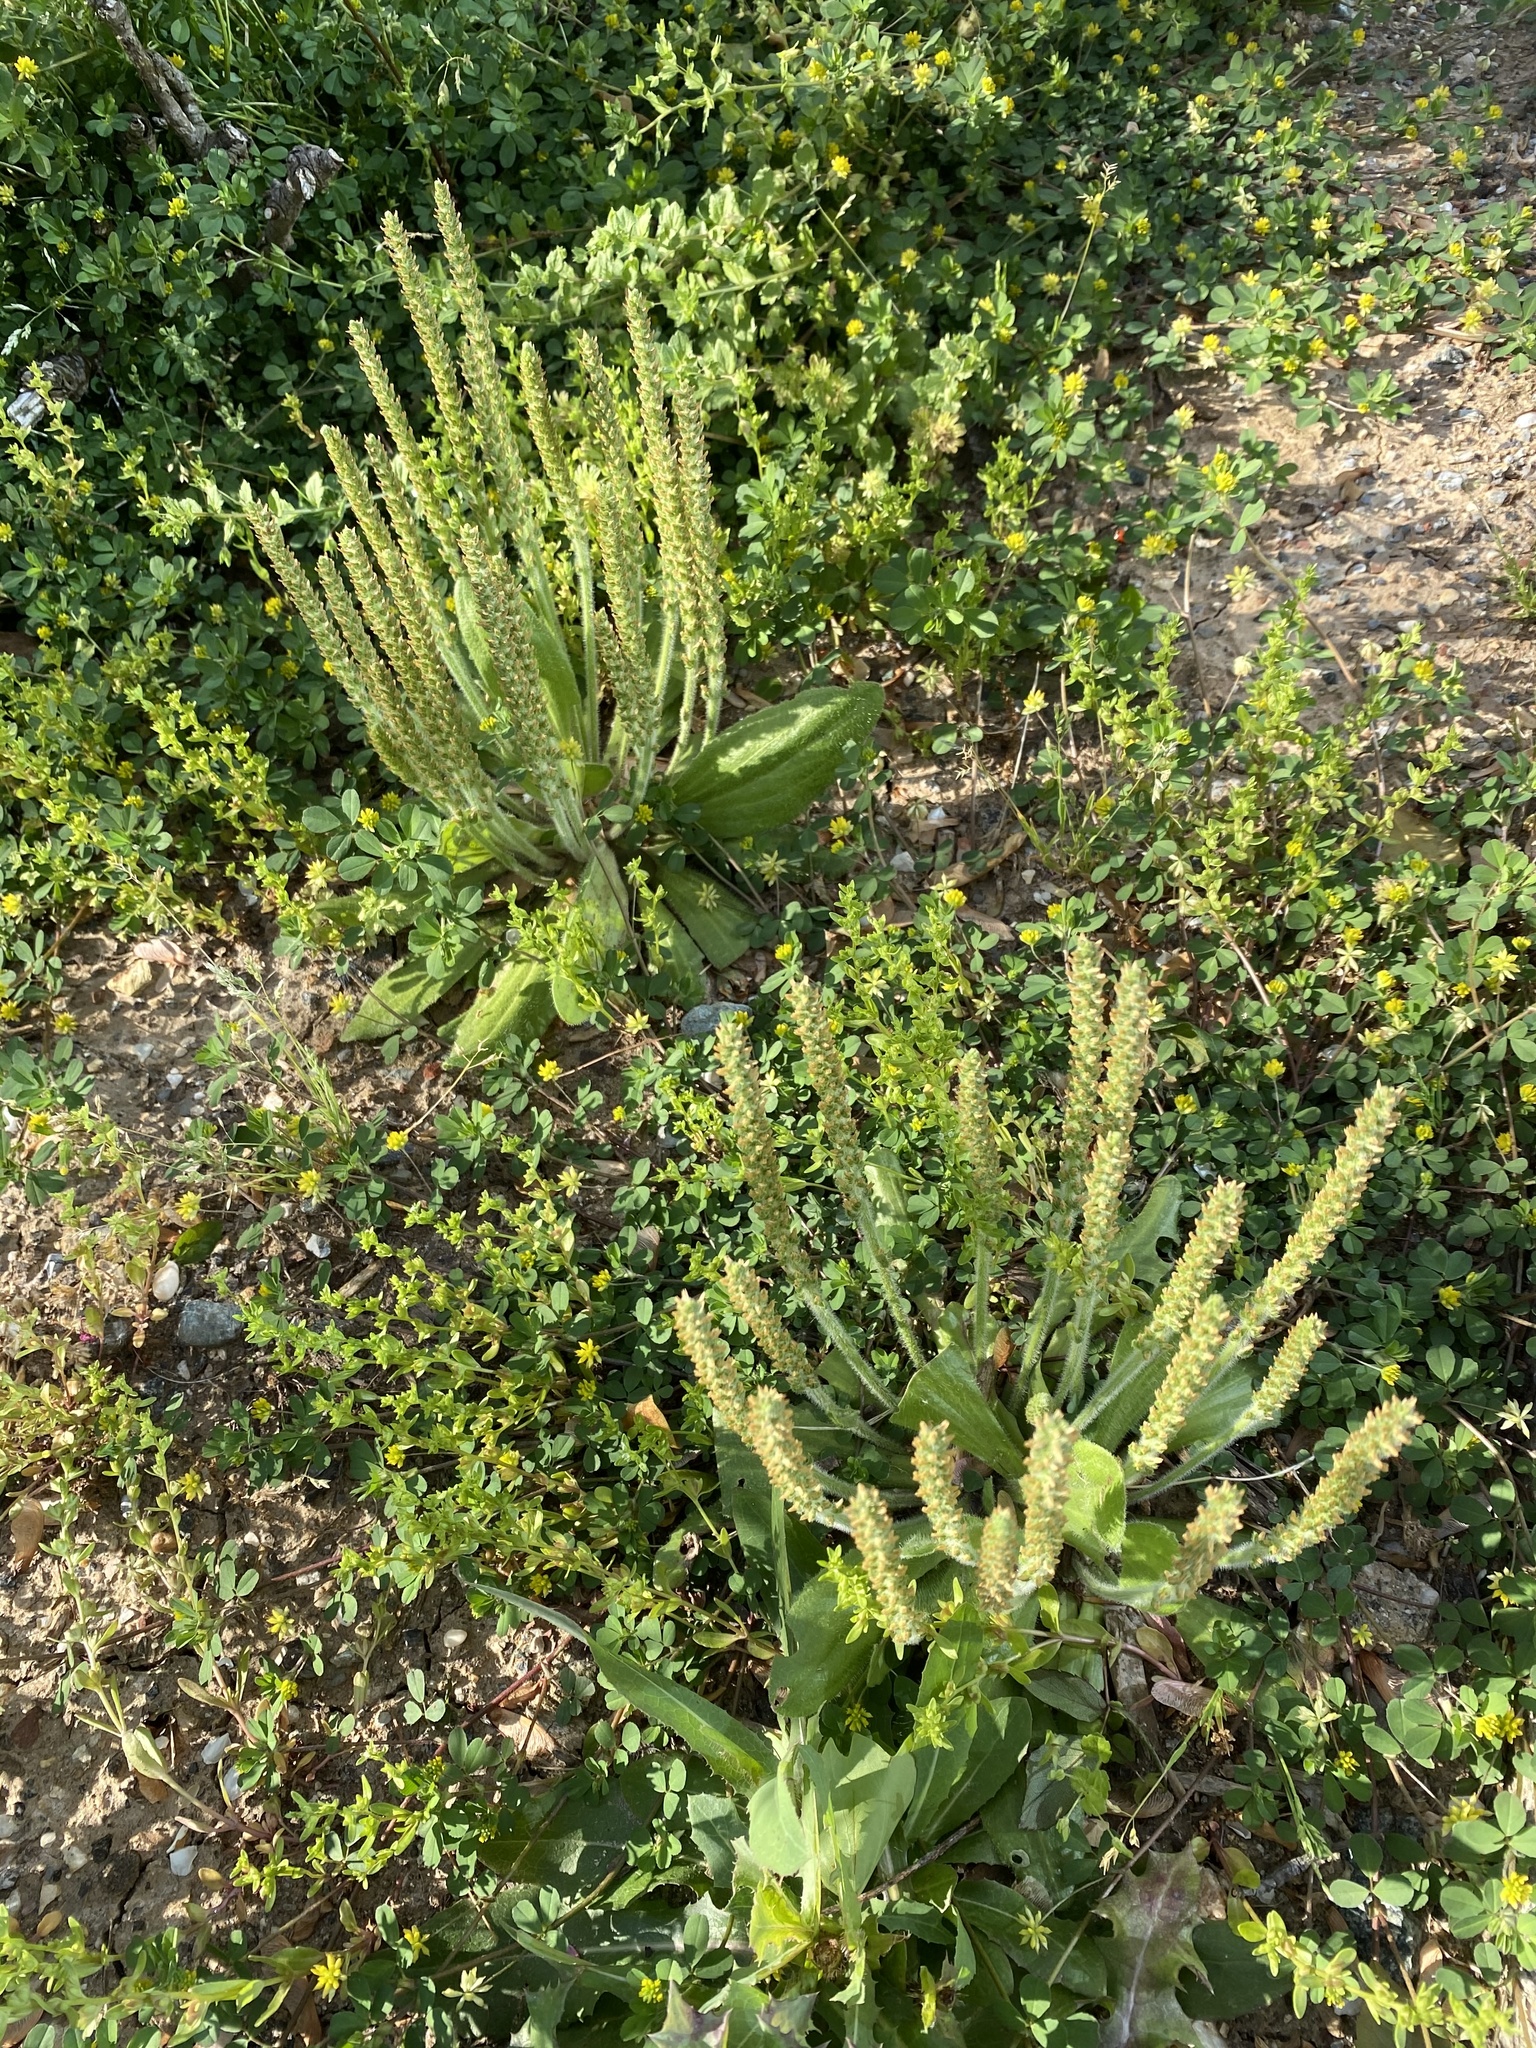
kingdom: Plantae
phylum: Tracheophyta
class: Magnoliopsida
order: Lamiales
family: Plantaginaceae
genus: Plantago
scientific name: Plantago virginica
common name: Hoary plantain
